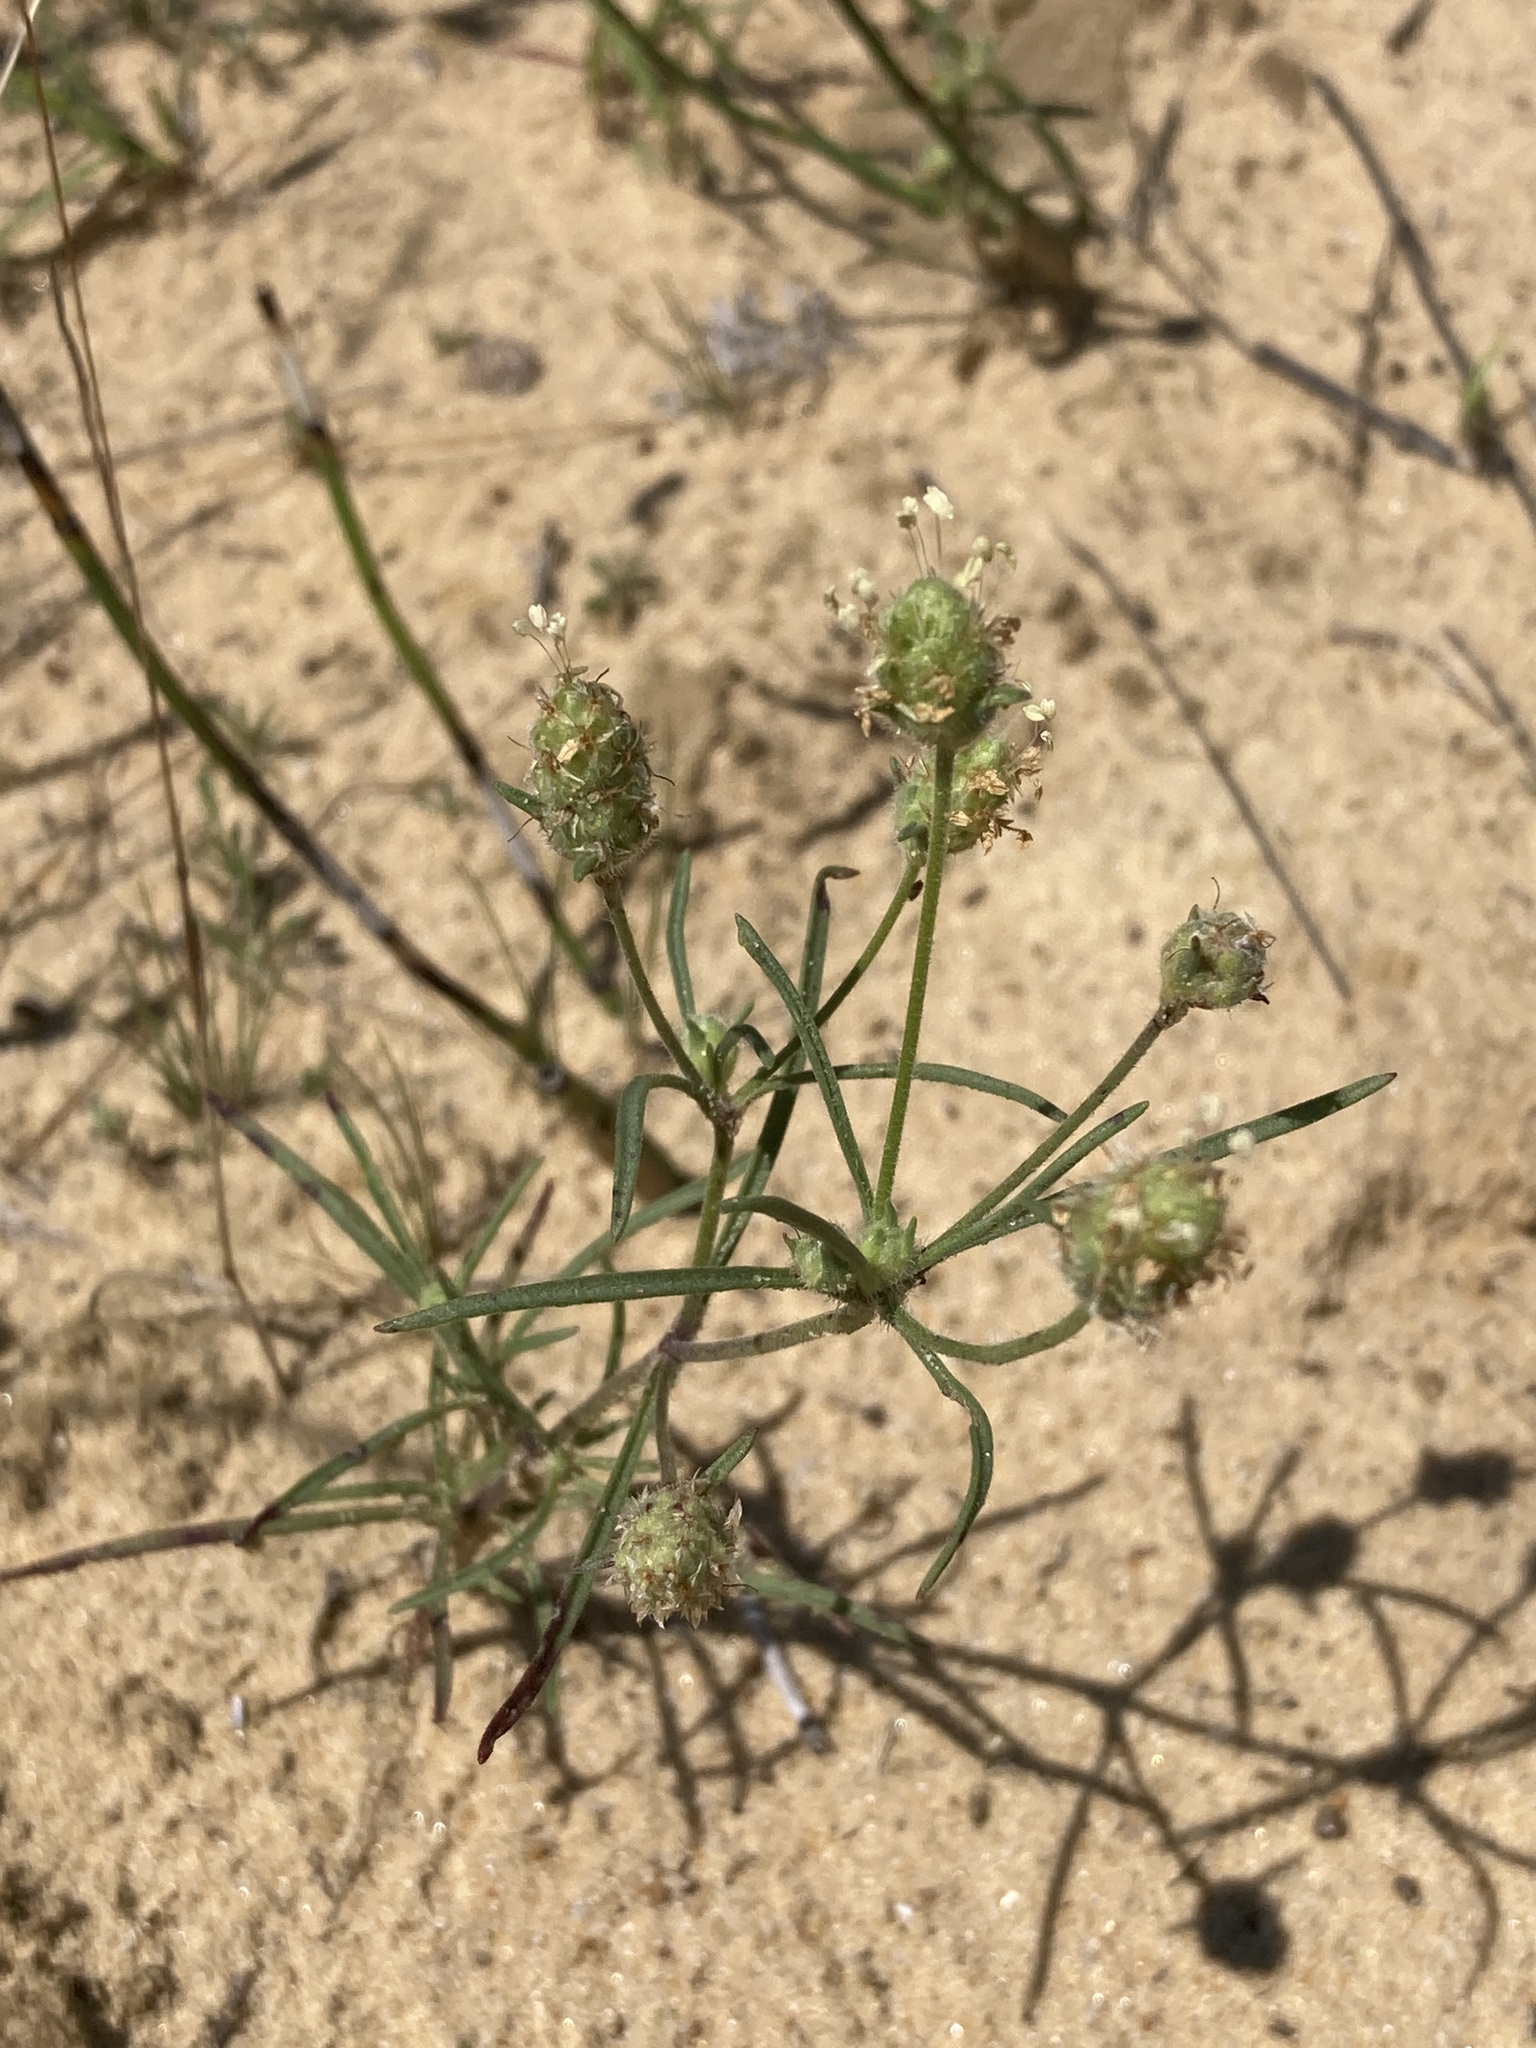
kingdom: Plantae
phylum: Tracheophyta
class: Magnoliopsida
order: Lamiales
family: Plantaginaceae
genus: Plantago
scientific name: Plantago arenaria
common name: Branched plantain
